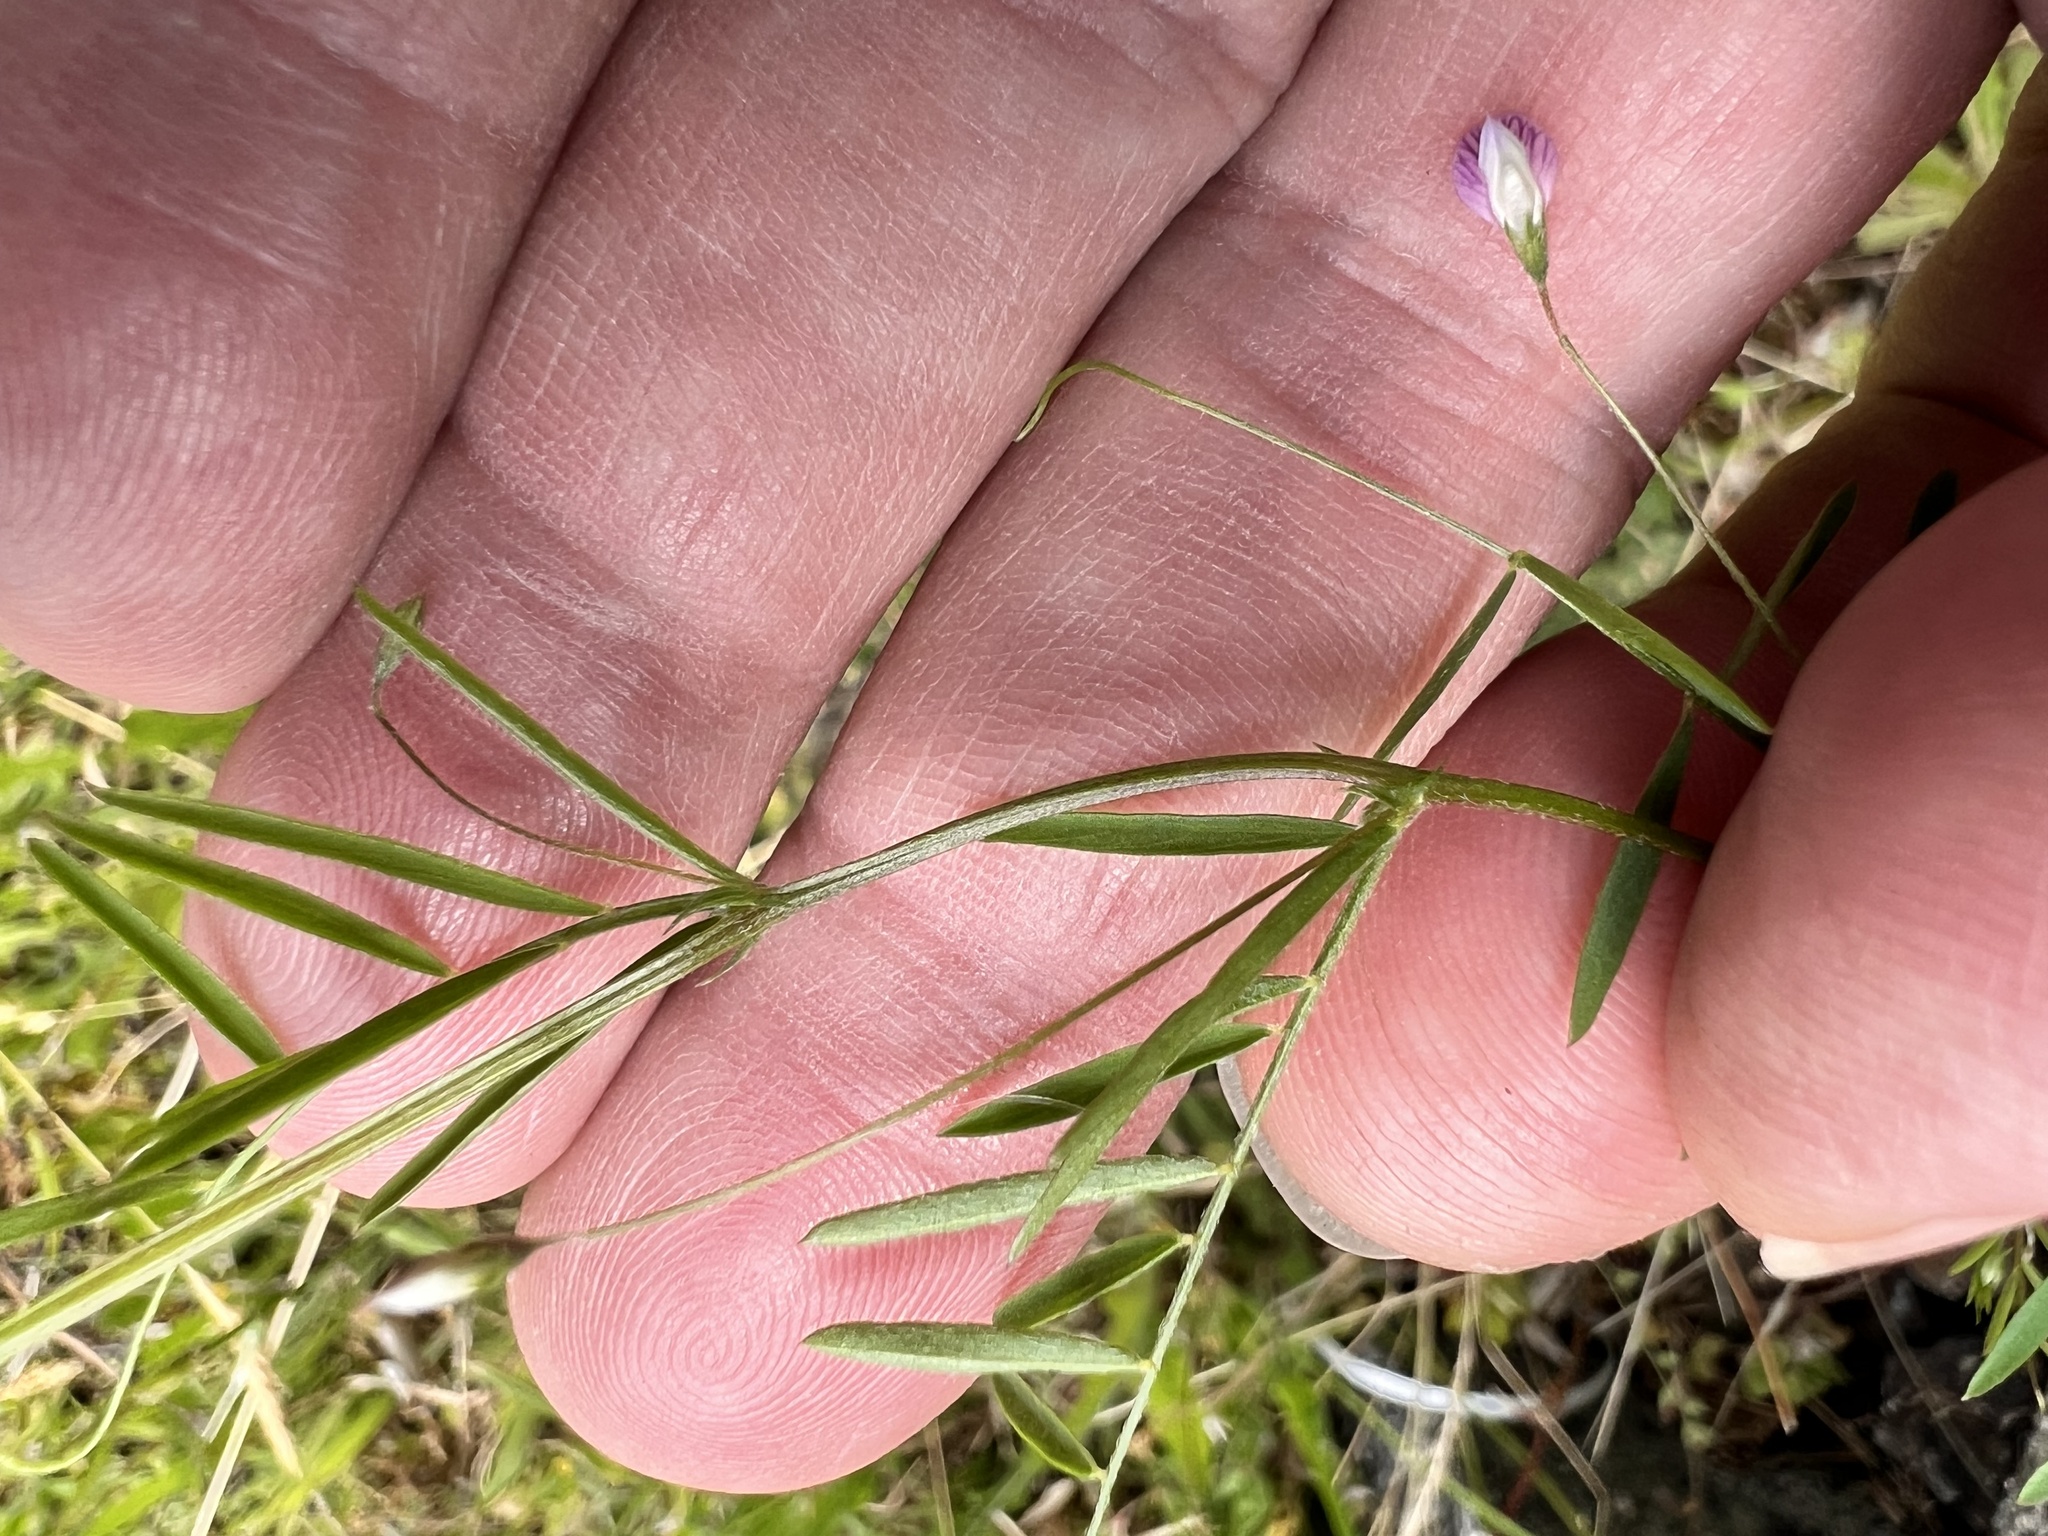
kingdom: Plantae
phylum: Tracheophyta
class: Magnoliopsida
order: Fabales
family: Fabaceae
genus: Vicia
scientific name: Vicia tetrasperma
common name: Smooth tare
